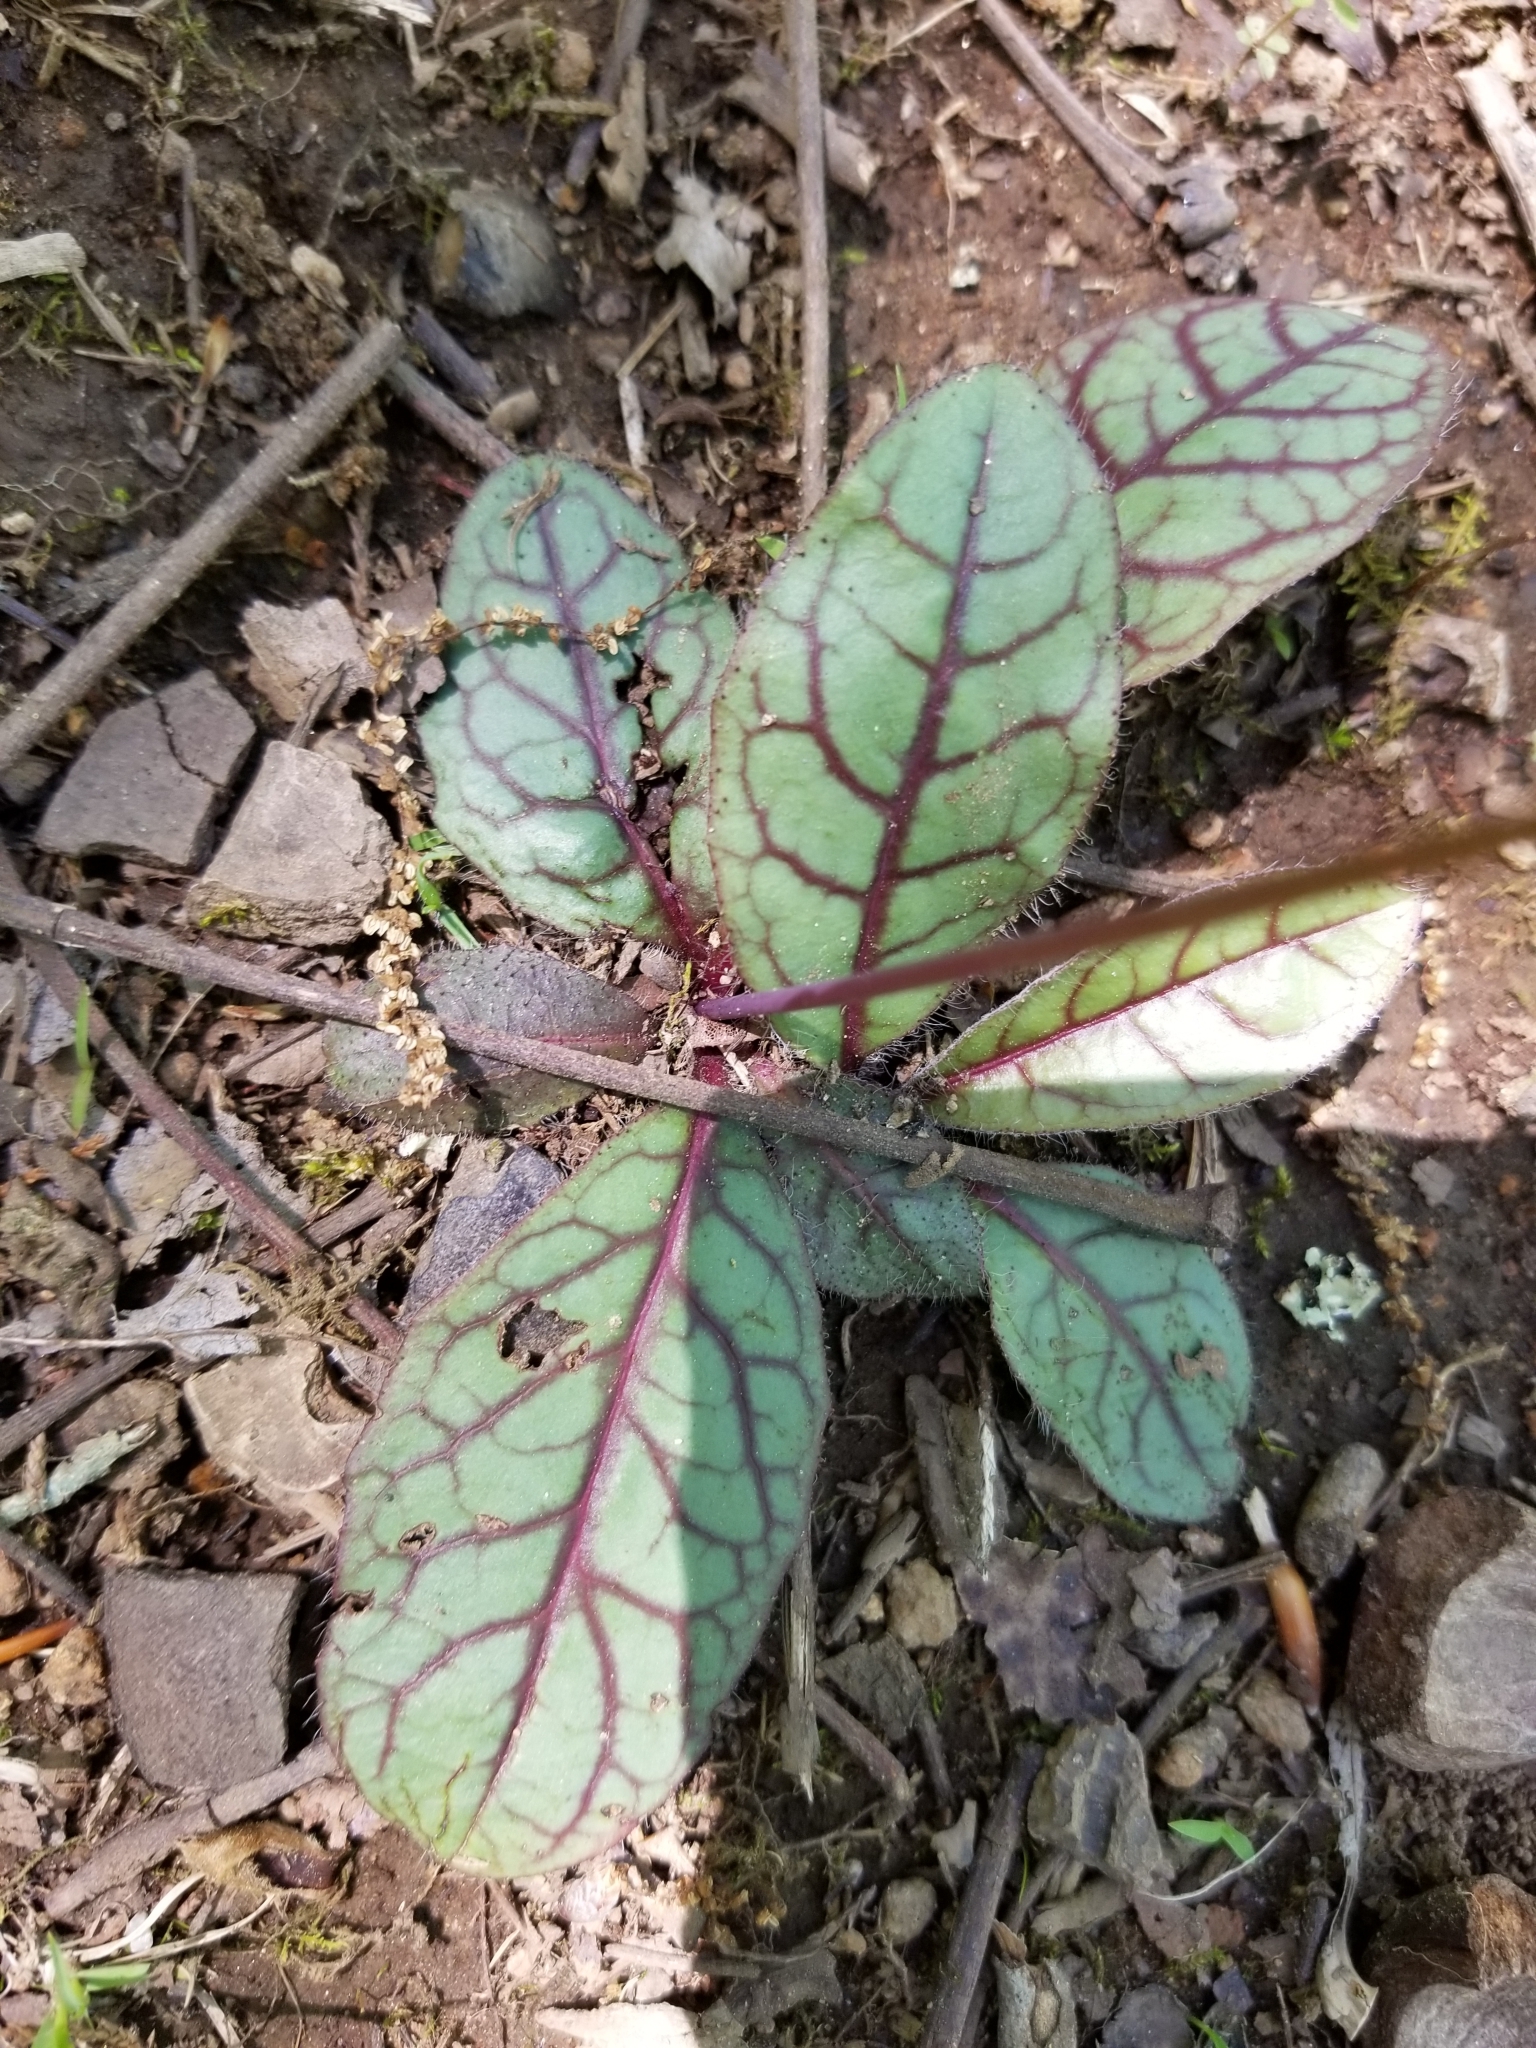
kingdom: Plantae
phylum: Tracheophyta
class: Magnoliopsida
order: Asterales
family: Asteraceae
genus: Hieracium
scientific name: Hieracium venosum
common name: Rattlesnake hawkweed
